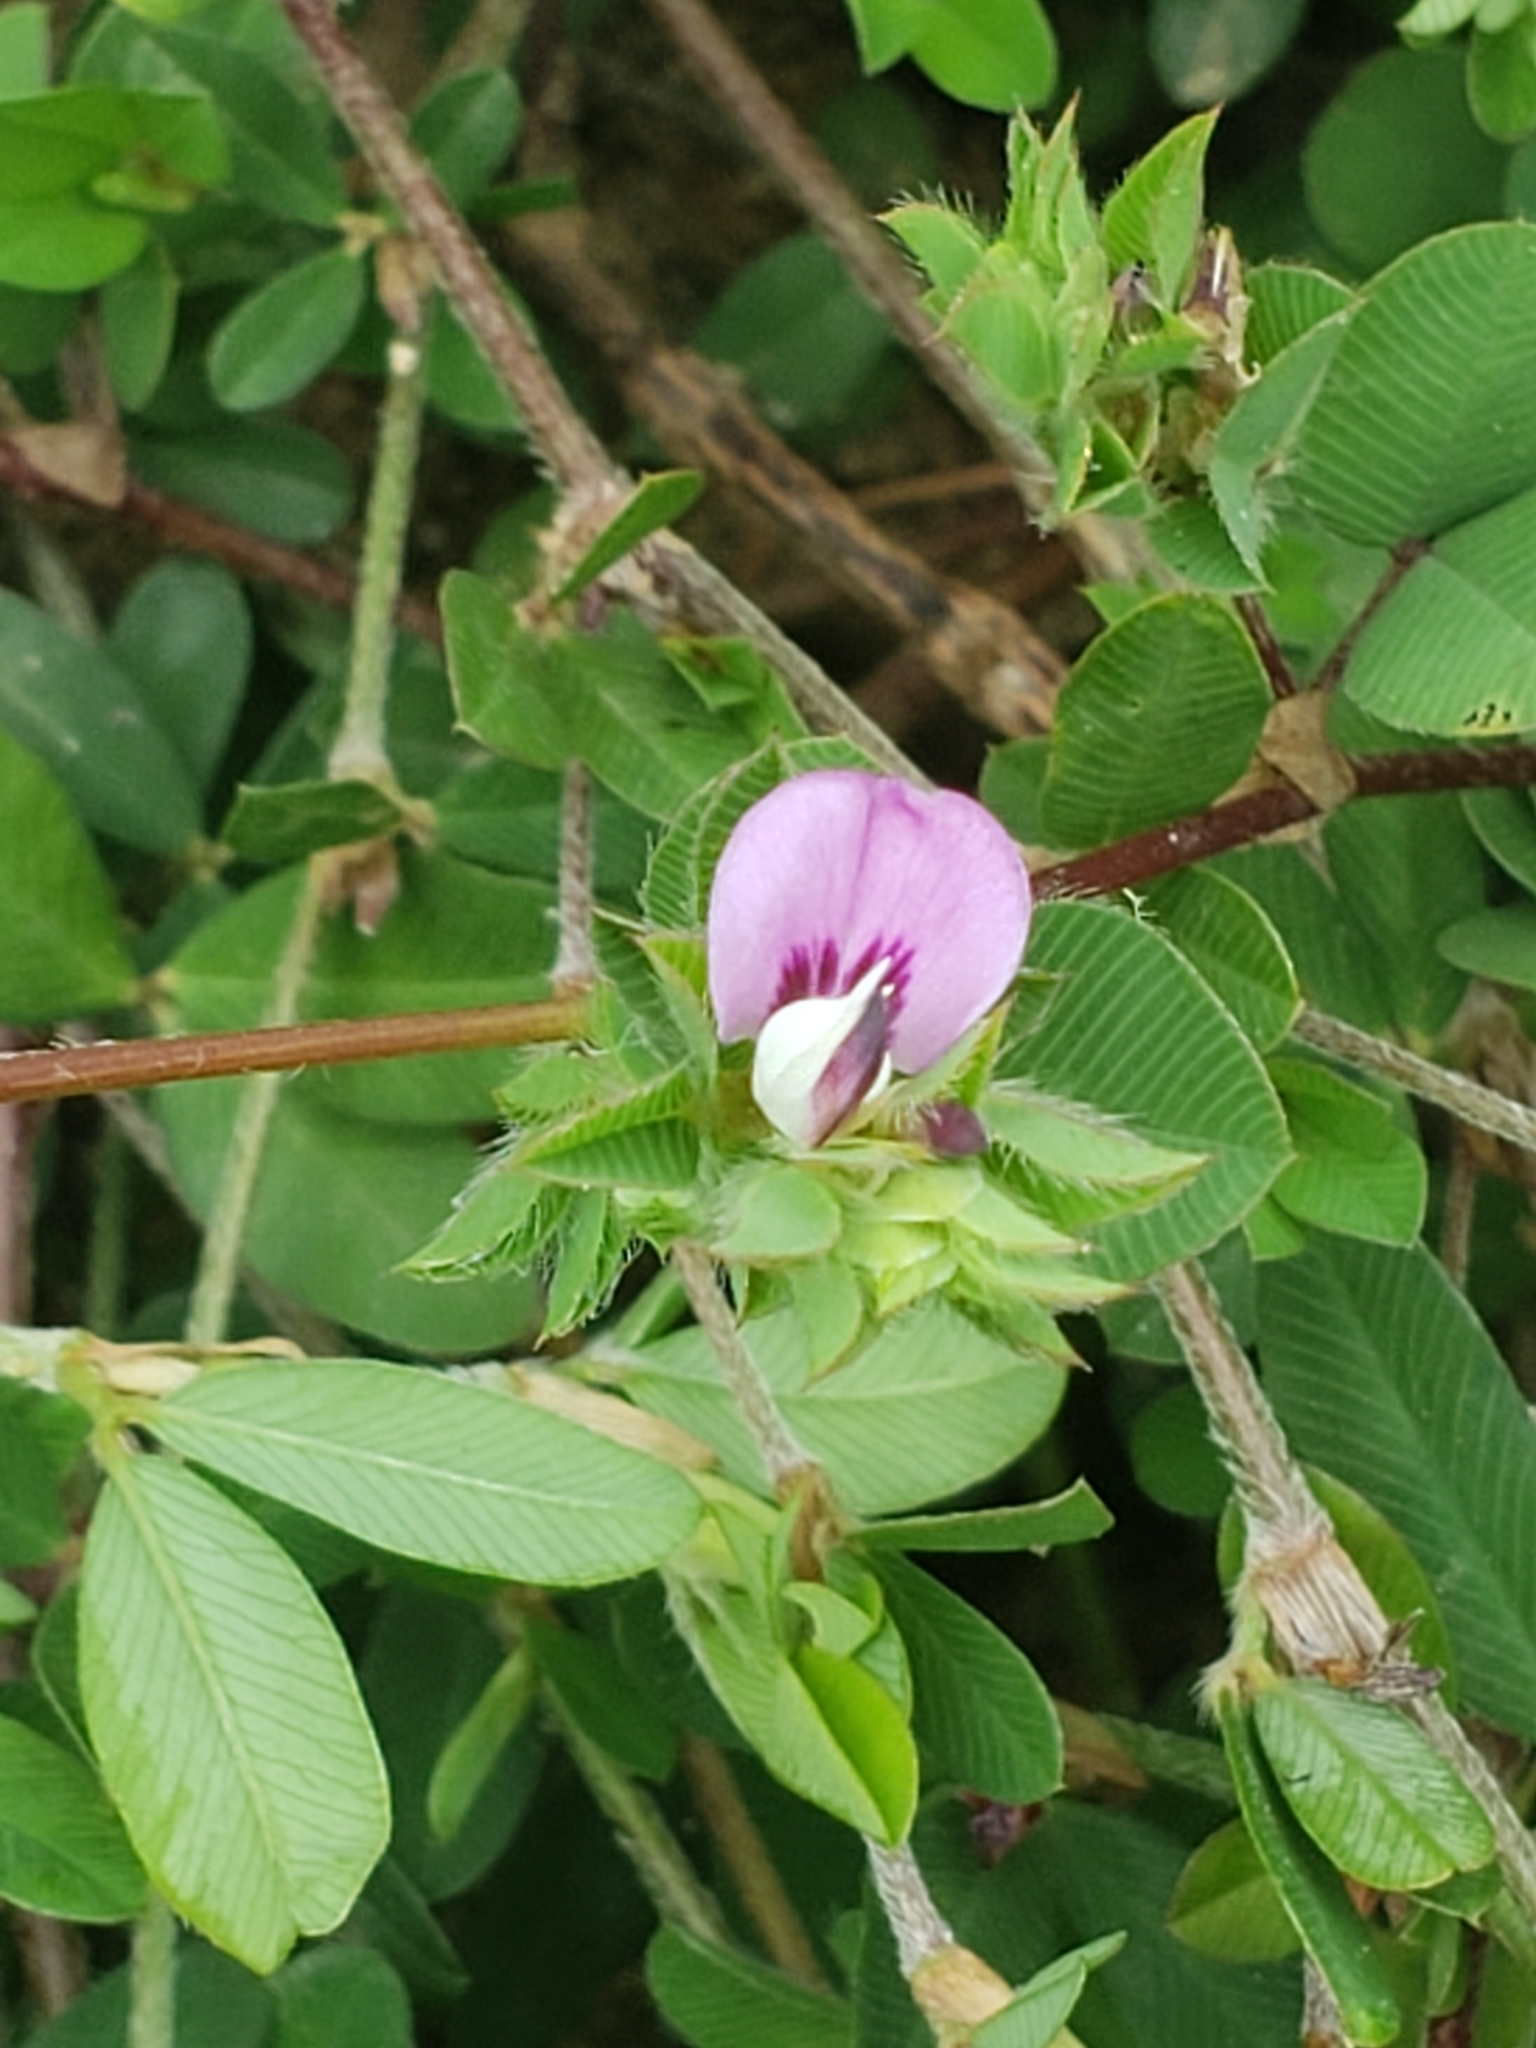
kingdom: Plantae
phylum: Tracheophyta
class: Magnoliopsida
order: Fabales
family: Fabaceae
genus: Kummerowia
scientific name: Kummerowia stipulacea
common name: Korean clover
